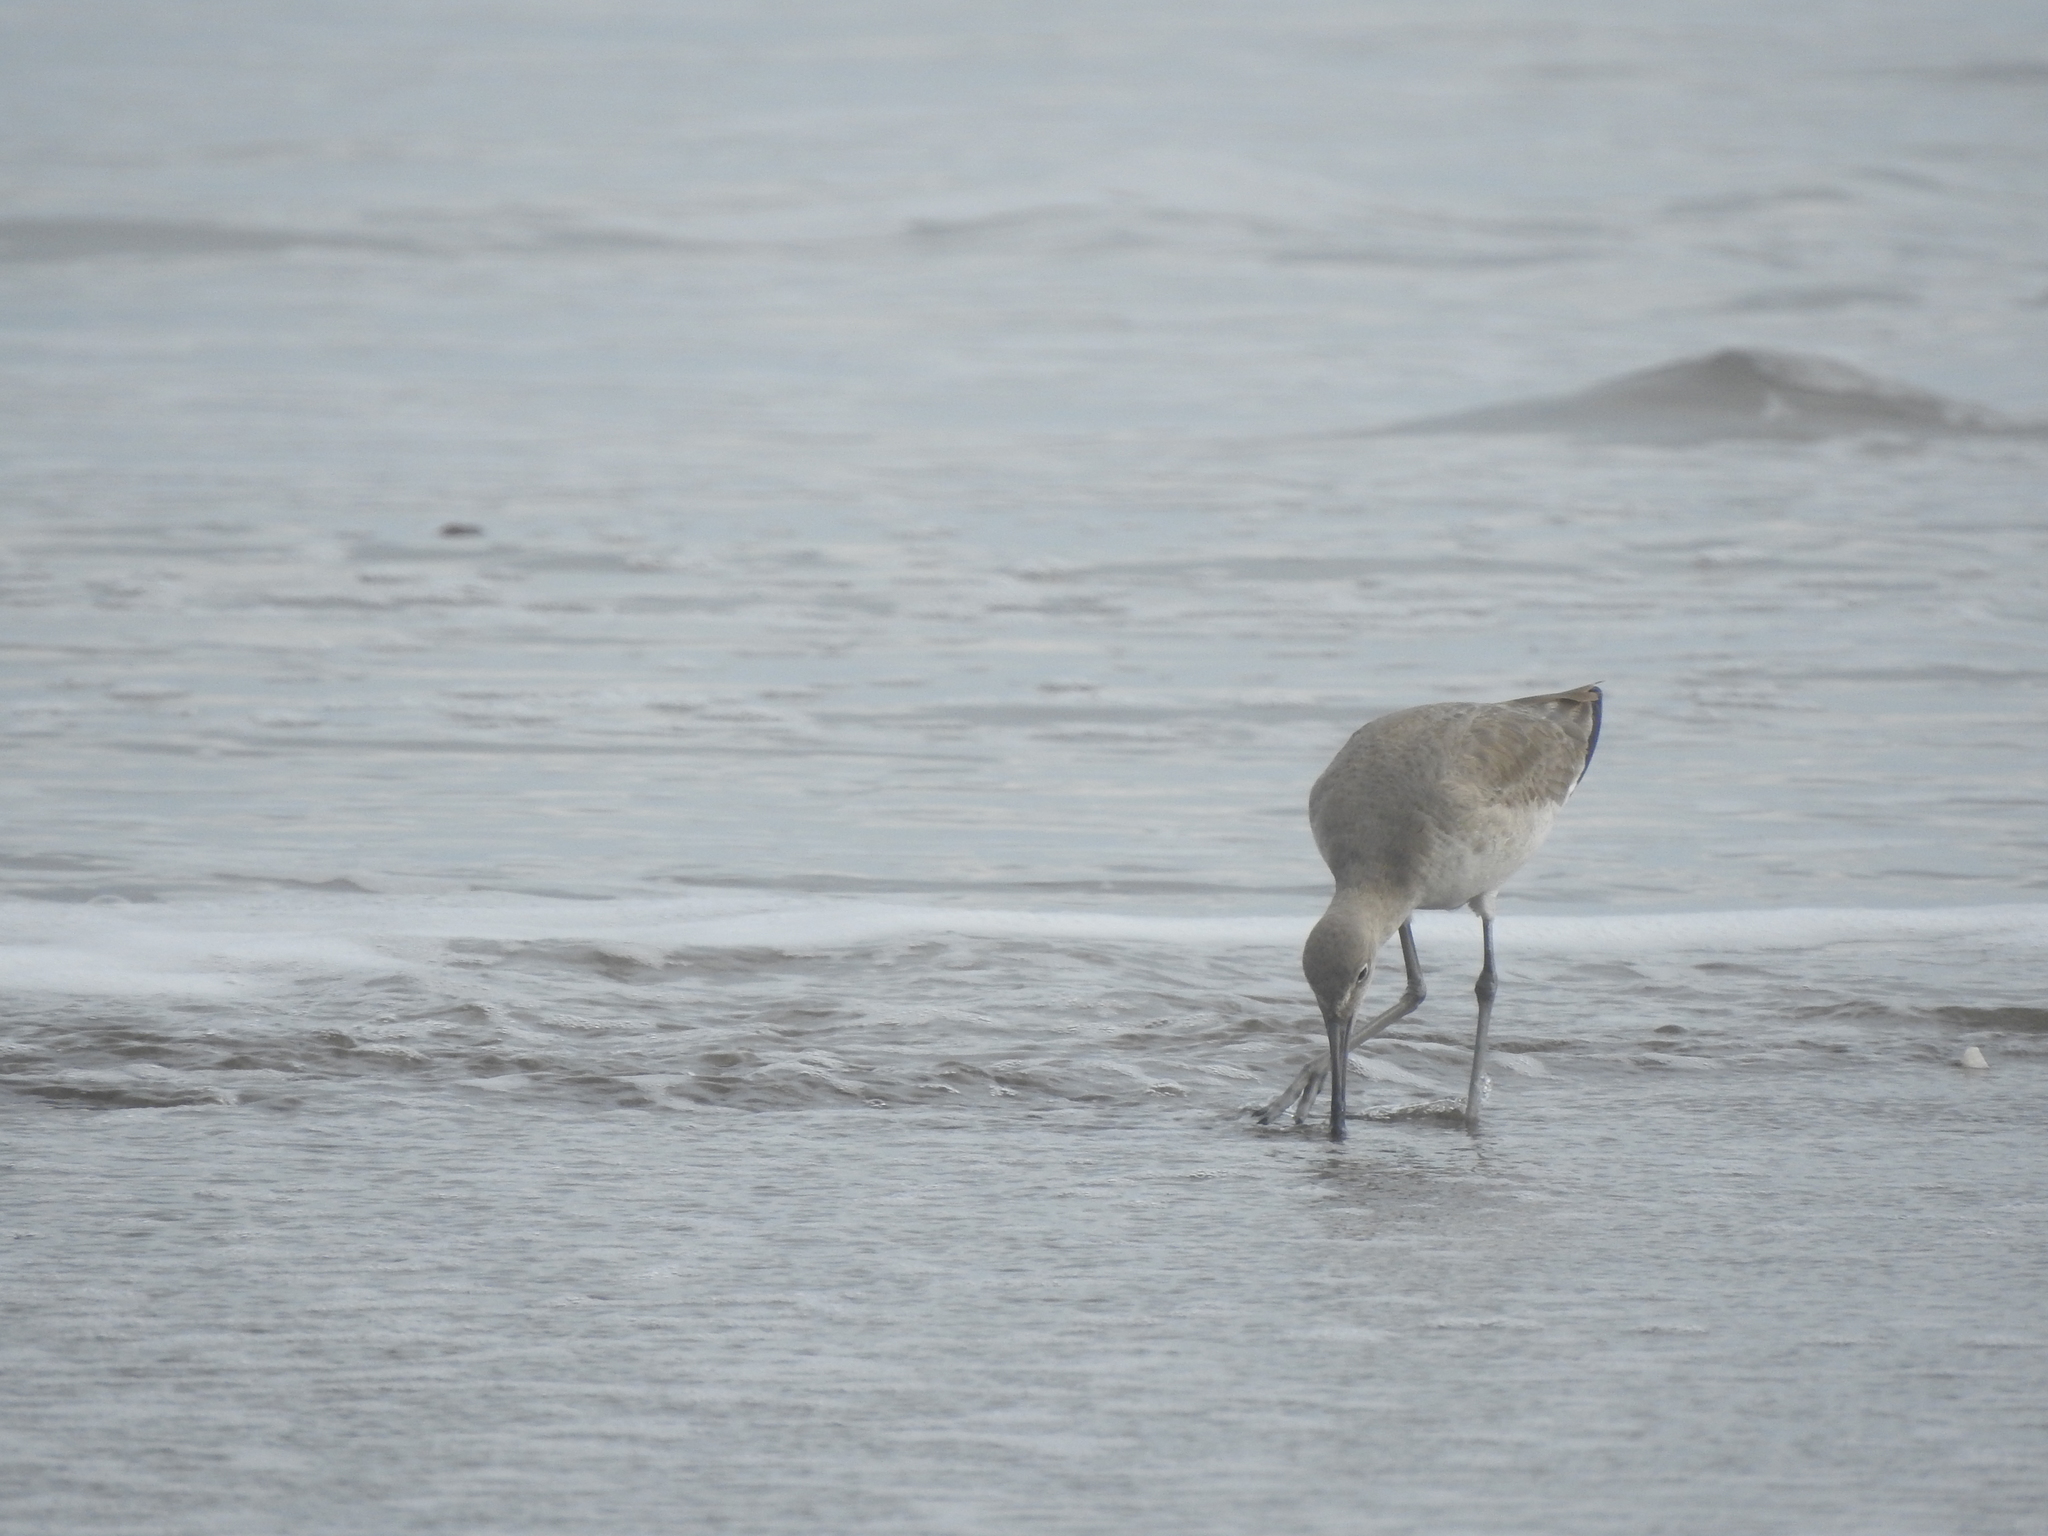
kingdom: Animalia
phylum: Chordata
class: Aves
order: Charadriiformes
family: Scolopacidae
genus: Tringa
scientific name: Tringa semipalmata
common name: Willet
